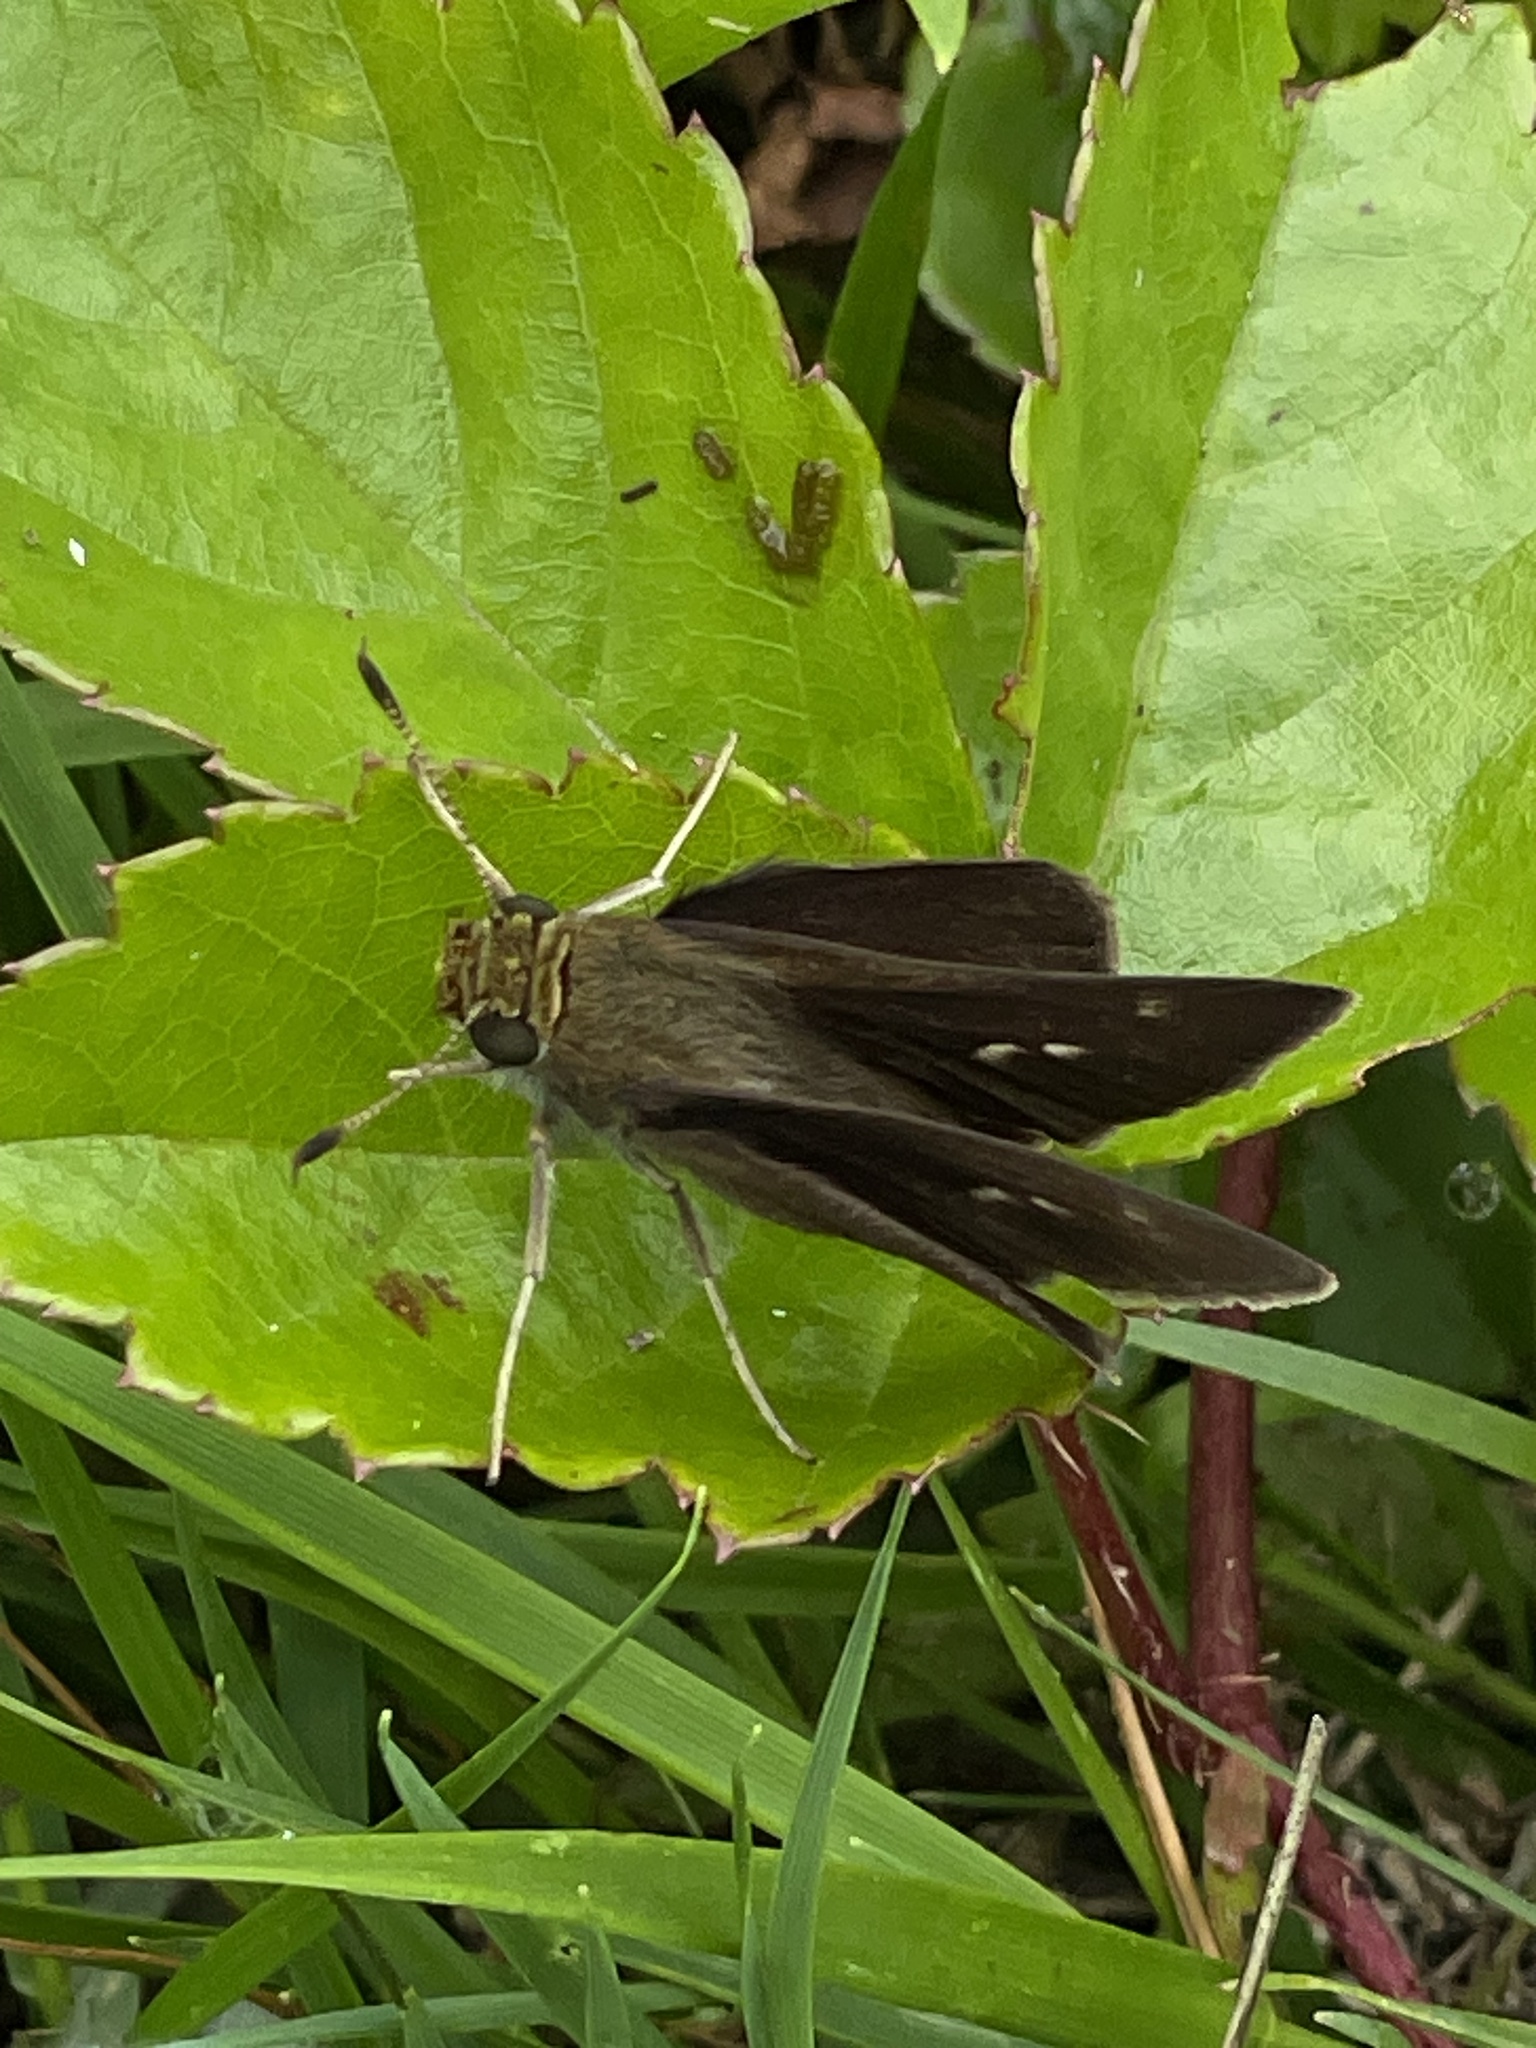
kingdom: Animalia
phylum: Arthropoda
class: Insecta
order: Lepidoptera
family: Hesperiidae
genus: Euphyes
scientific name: Euphyes vestris
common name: Dun skipper
